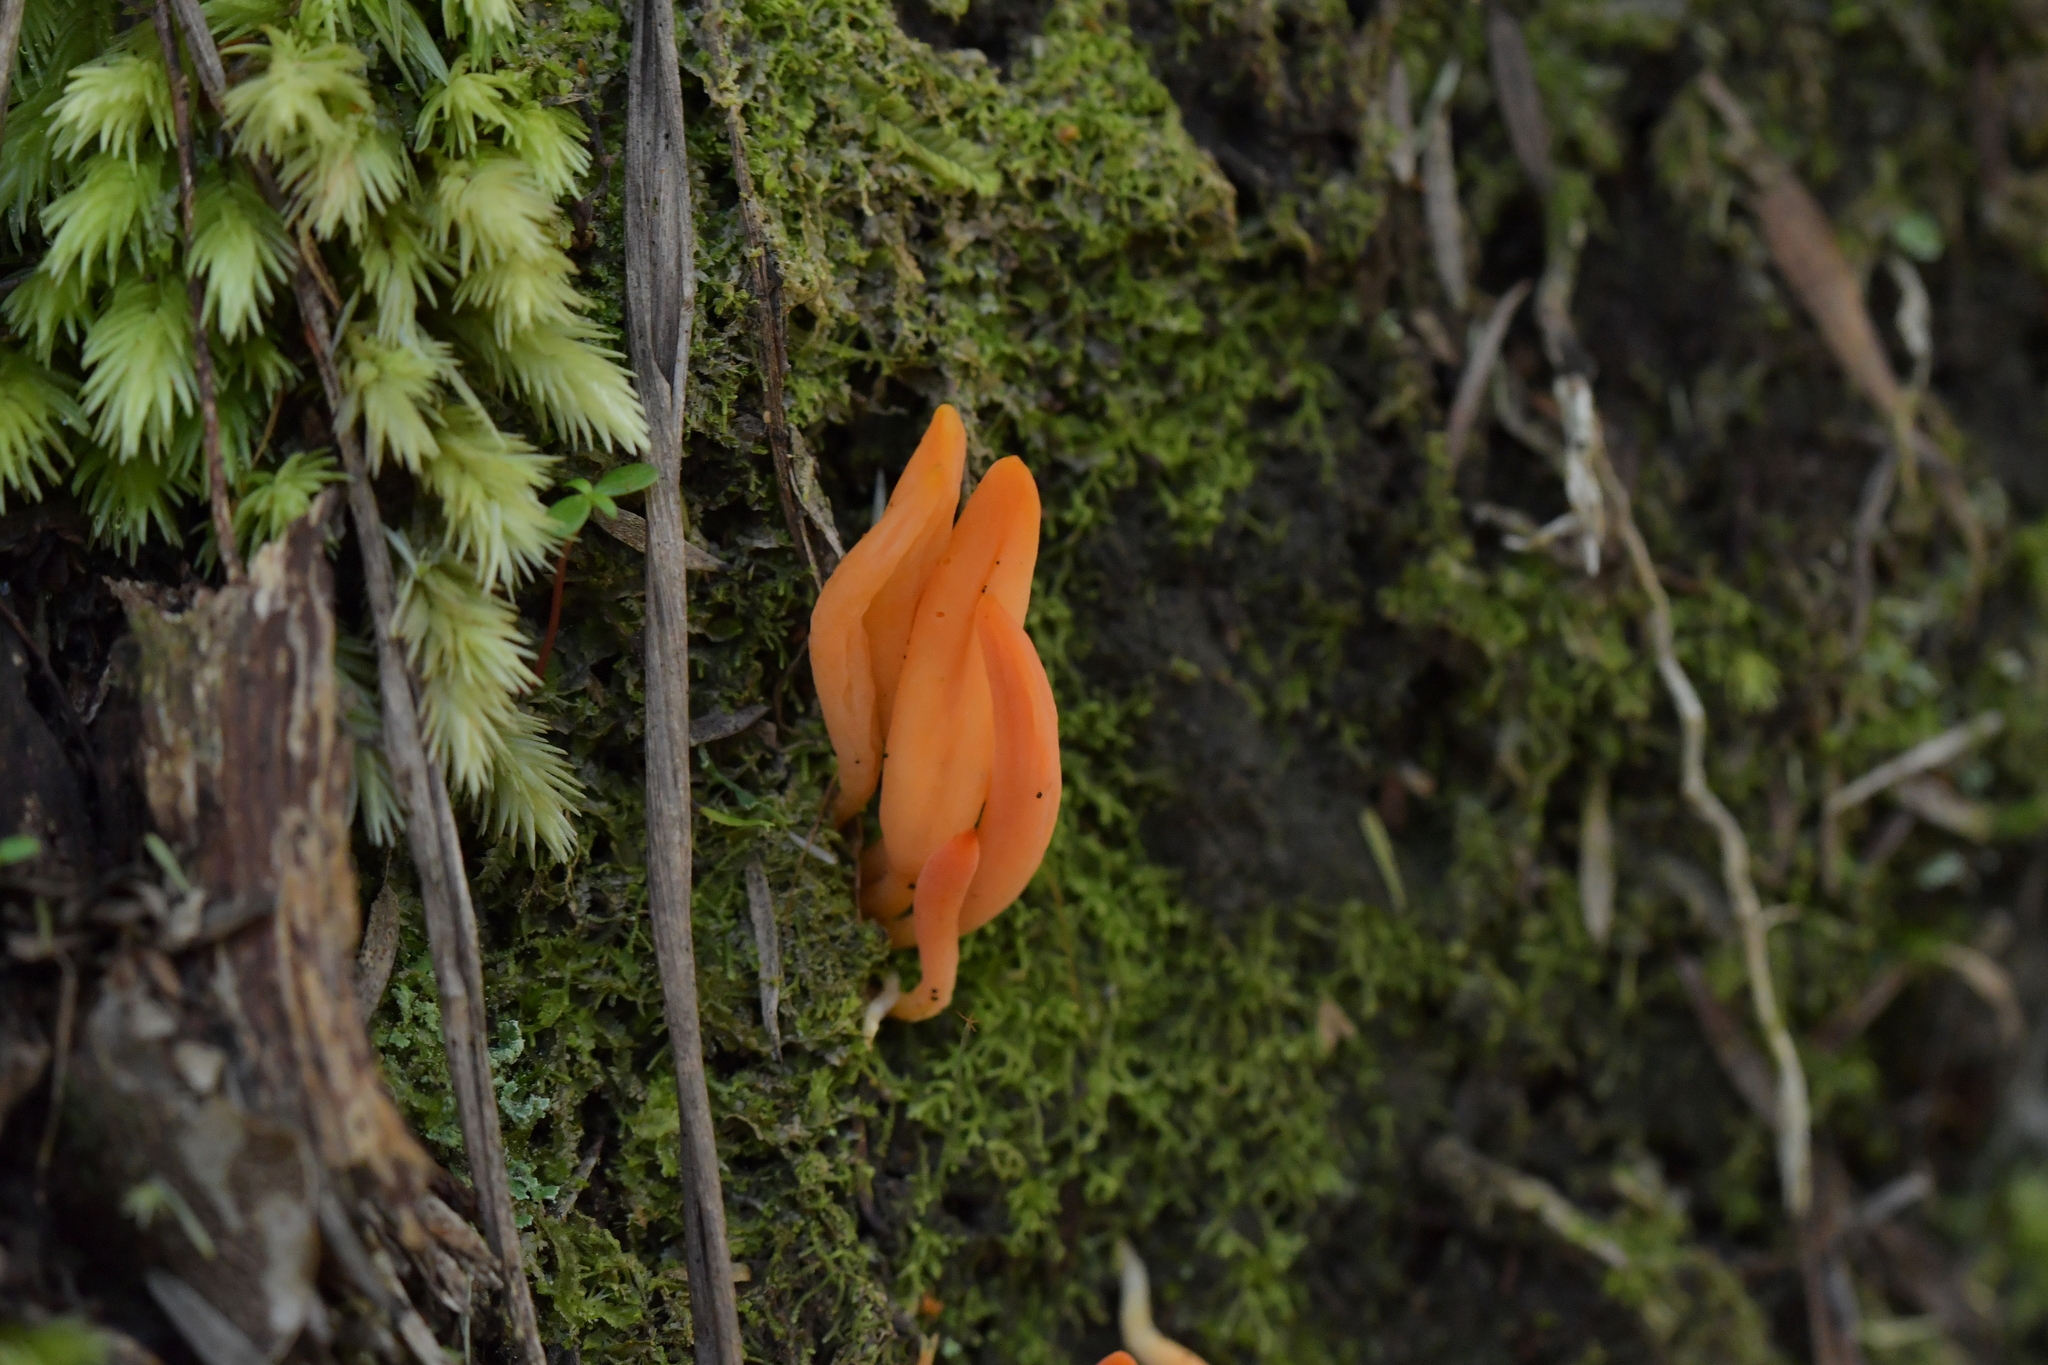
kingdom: Fungi
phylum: Basidiomycota
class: Agaricomycetes
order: Agaricales
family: Clavariaceae
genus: Clavulinopsis
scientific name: Clavulinopsis sulcata
